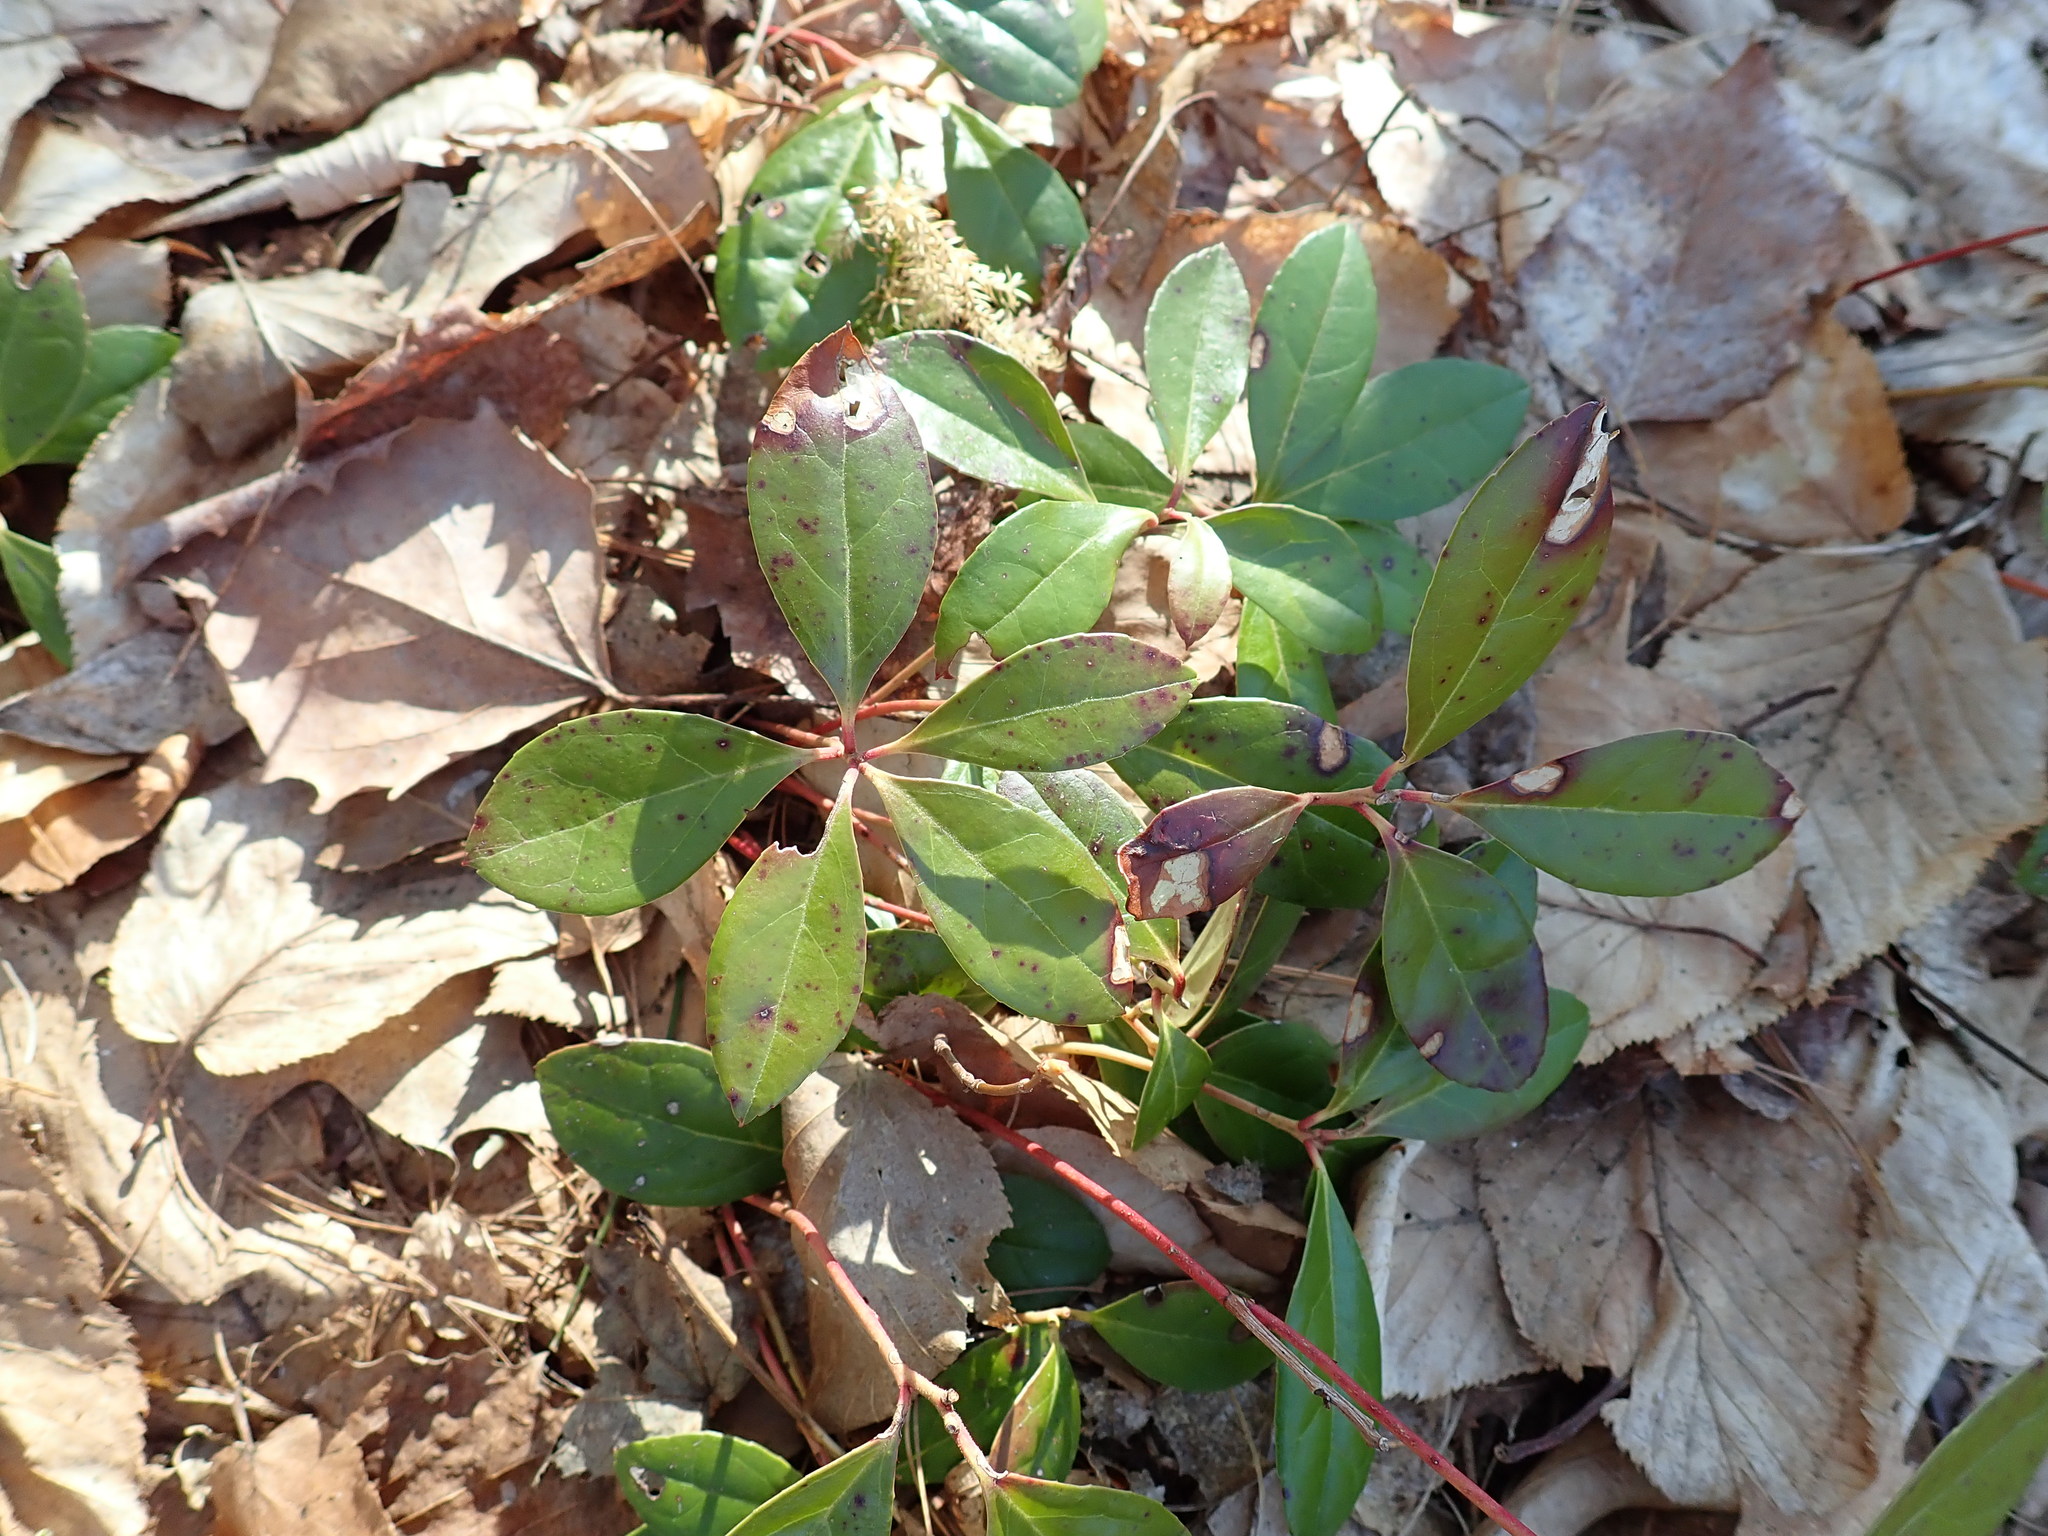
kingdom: Plantae
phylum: Tracheophyta
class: Magnoliopsida
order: Ericales
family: Ericaceae
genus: Gaultheria
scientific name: Gaultheria procumbens
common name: Checkerberry
